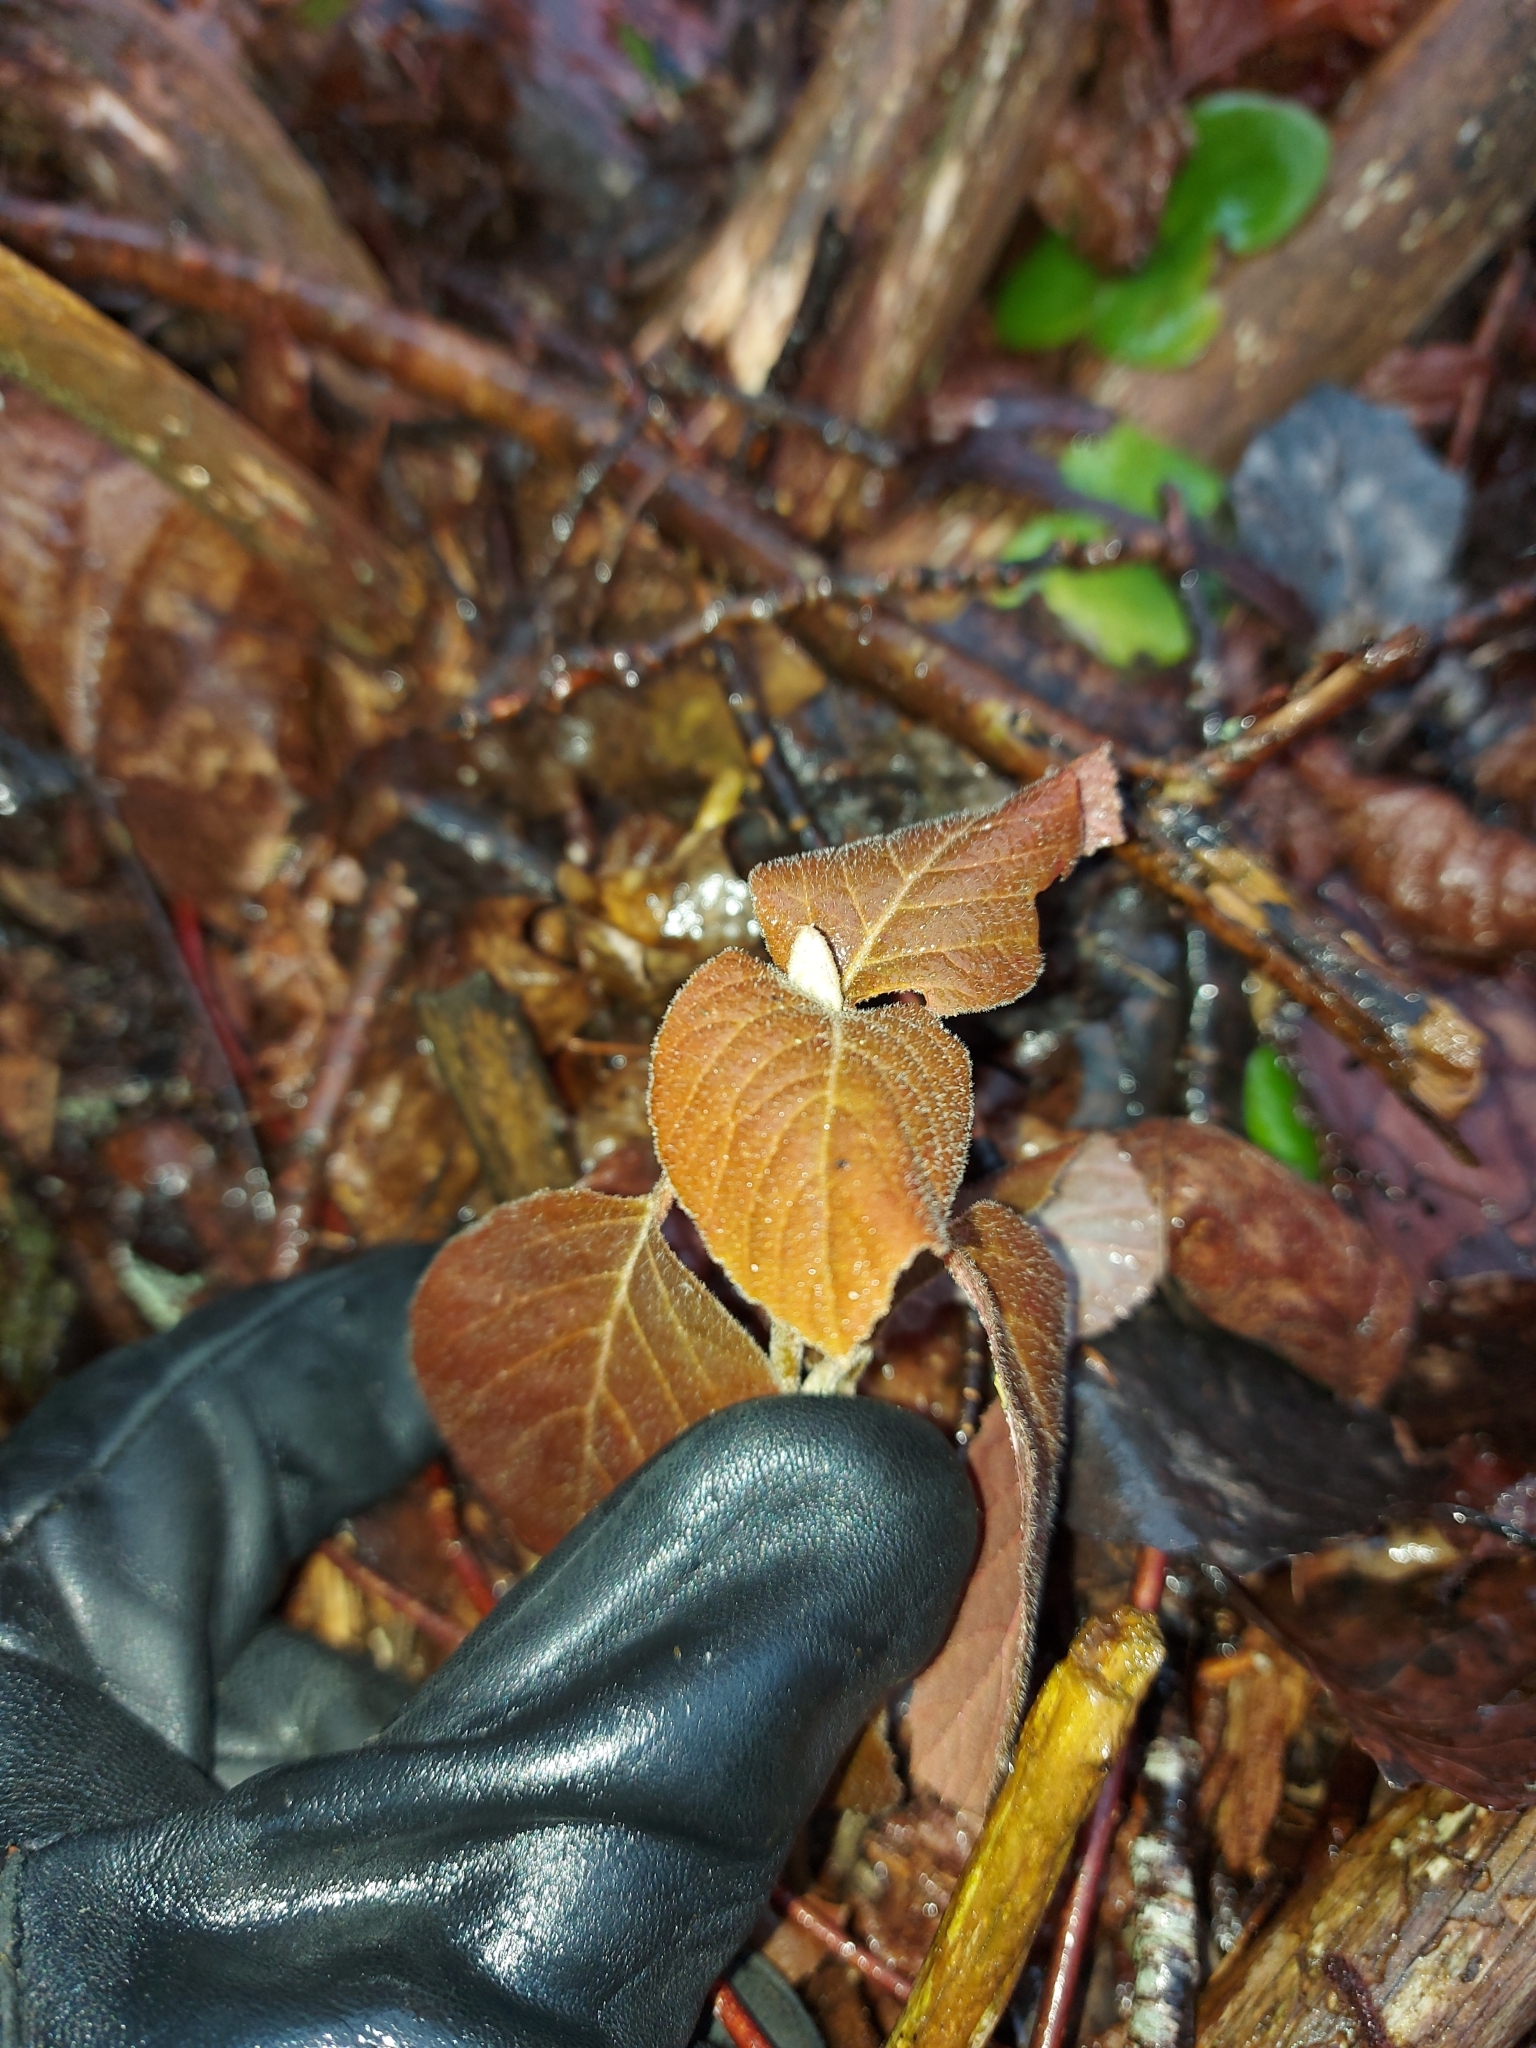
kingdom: Plantae
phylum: Tracheophyta
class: Magnoliopsida
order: Dipsacales
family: Viburnaceae
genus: Viburnum
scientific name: Viburnum lantana
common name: Wayfaring tree
